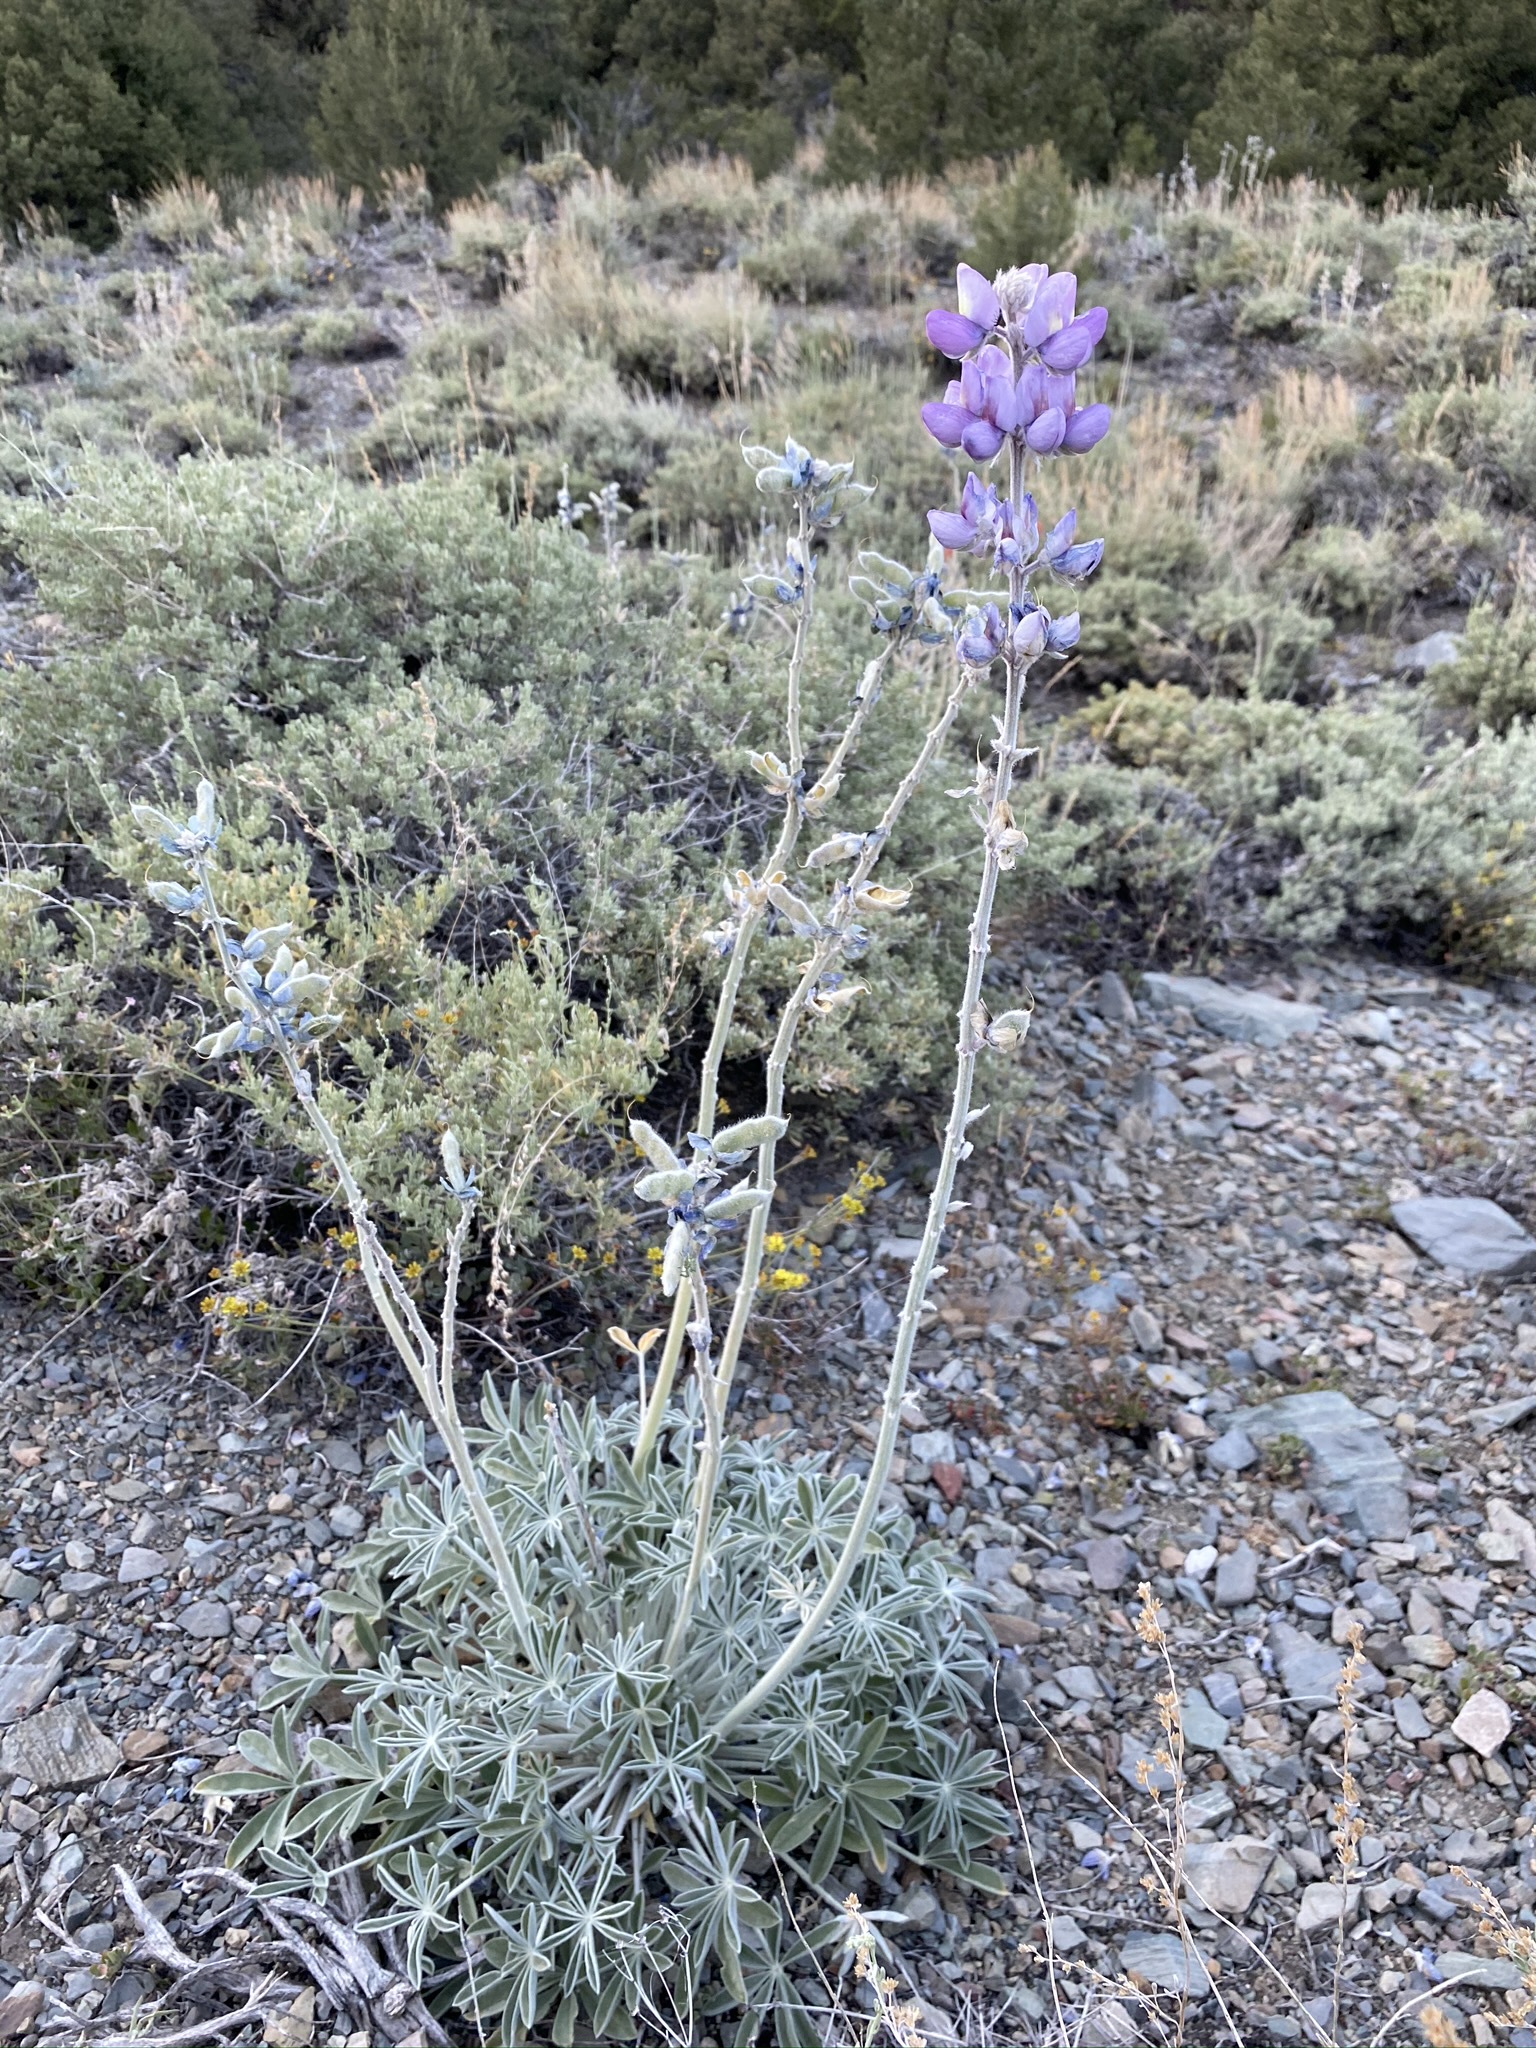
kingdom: Plantae
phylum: Tracheophyta
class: Magnoliopsida
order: Fabales
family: Fabaceae
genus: Lupinus
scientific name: Lupinus magnificus
